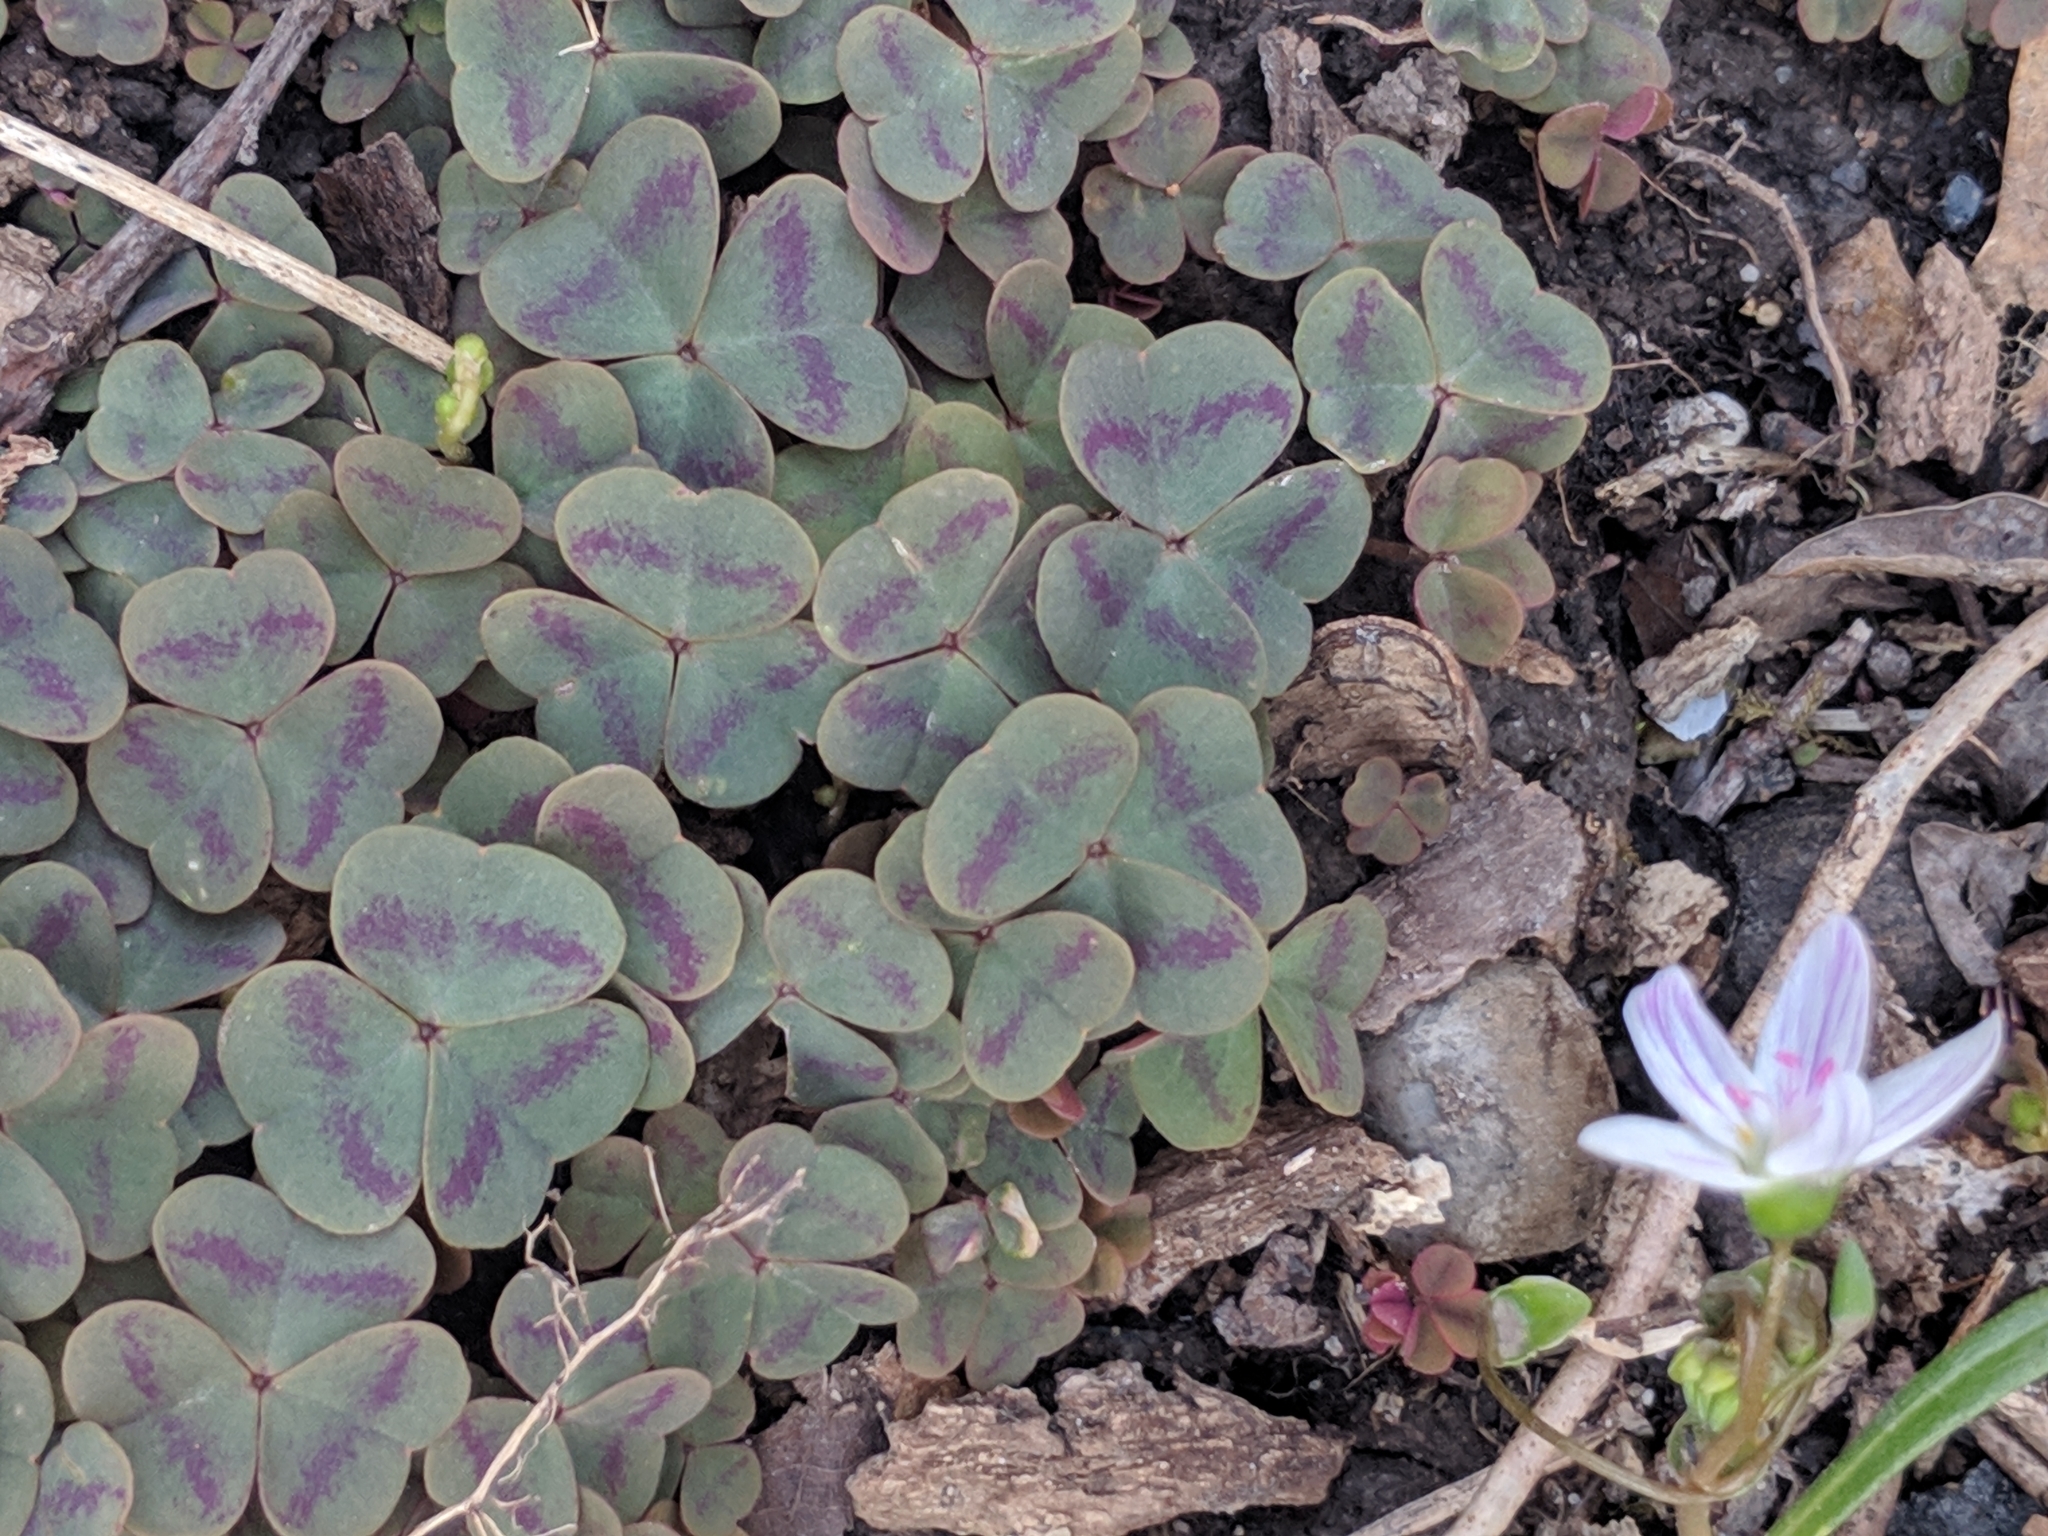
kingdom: Plantae
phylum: Tracheophyta
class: Magnoliopsida
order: Oxalidales
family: Oxalidaceae
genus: Oxalis
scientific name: Oxalis violacea
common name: Violet wood-sorrel
